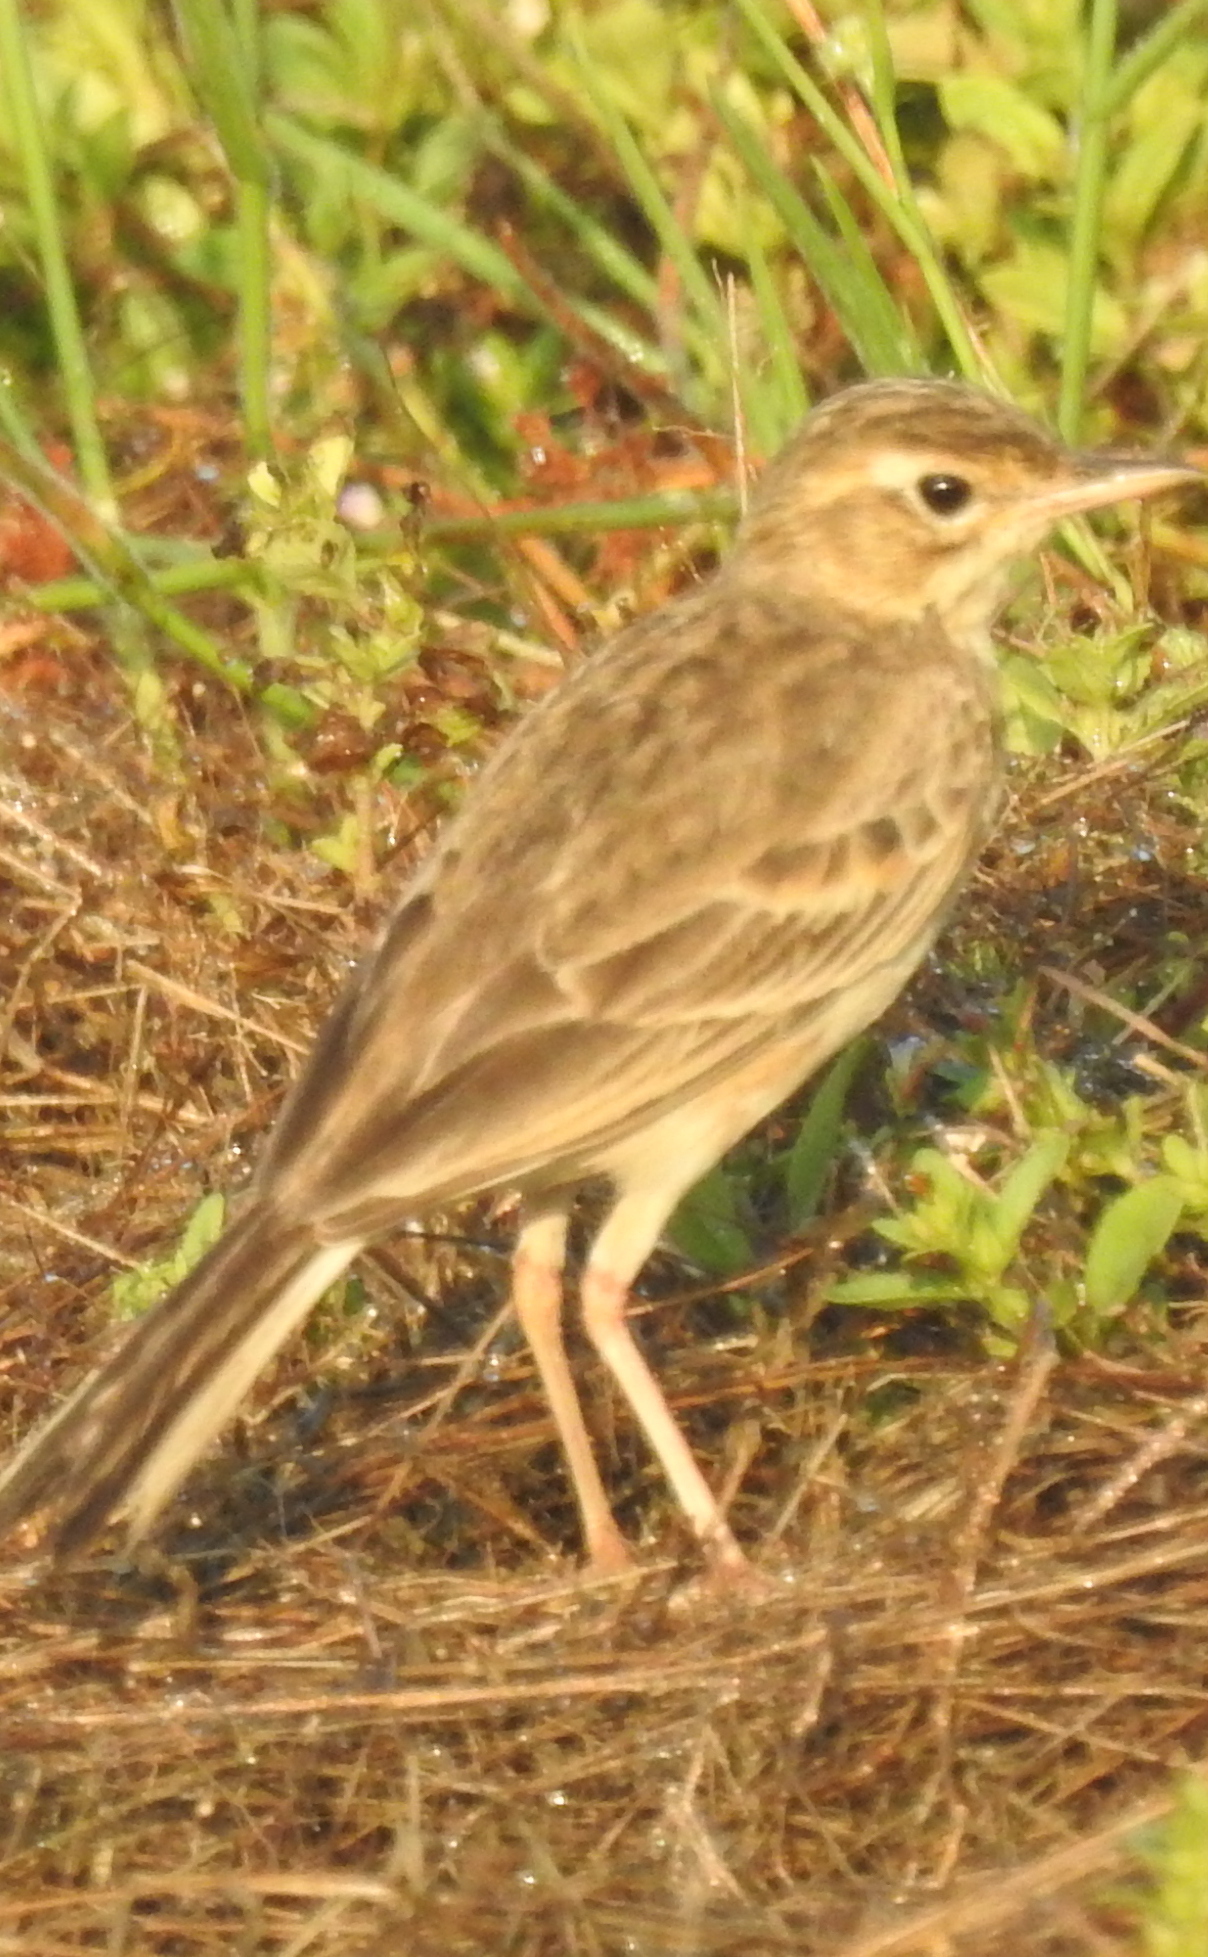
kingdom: Animalia
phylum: Chordata
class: Aves
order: Passeriformes
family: Motacillidae
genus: Anthus
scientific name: Anthus rufulus
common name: Paddyfield pipit
